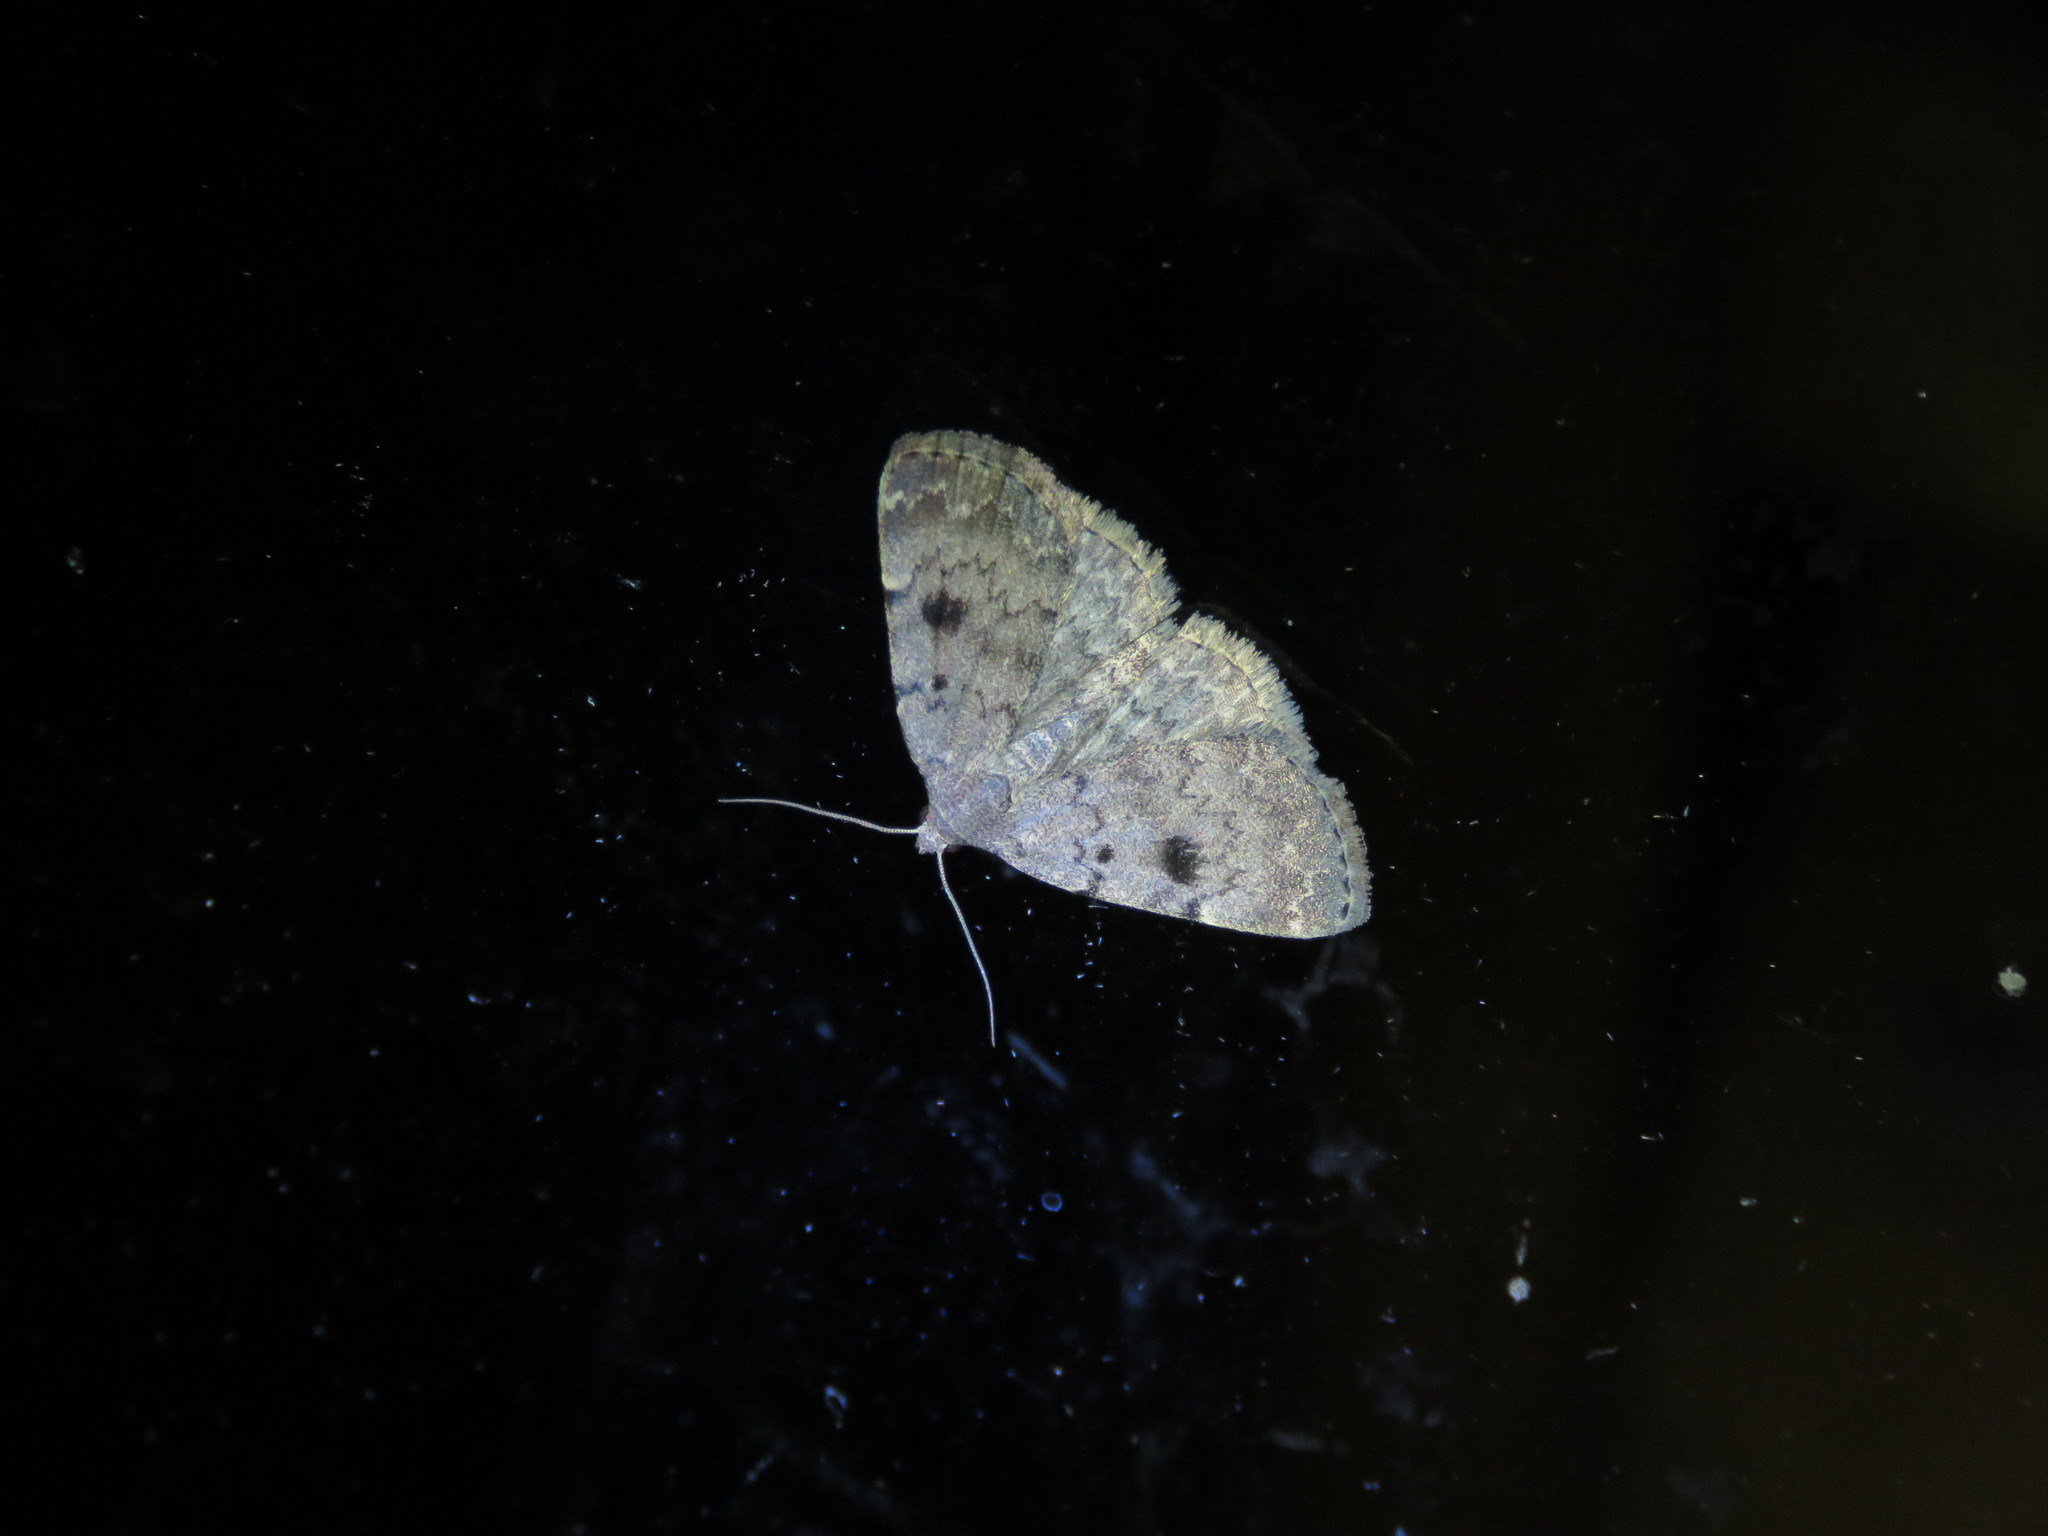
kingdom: Animalia
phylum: Arthropoda
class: Insecta
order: Lepidoptera
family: Erebidae
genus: Idia
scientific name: Idia aemula
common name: Common idia moth
